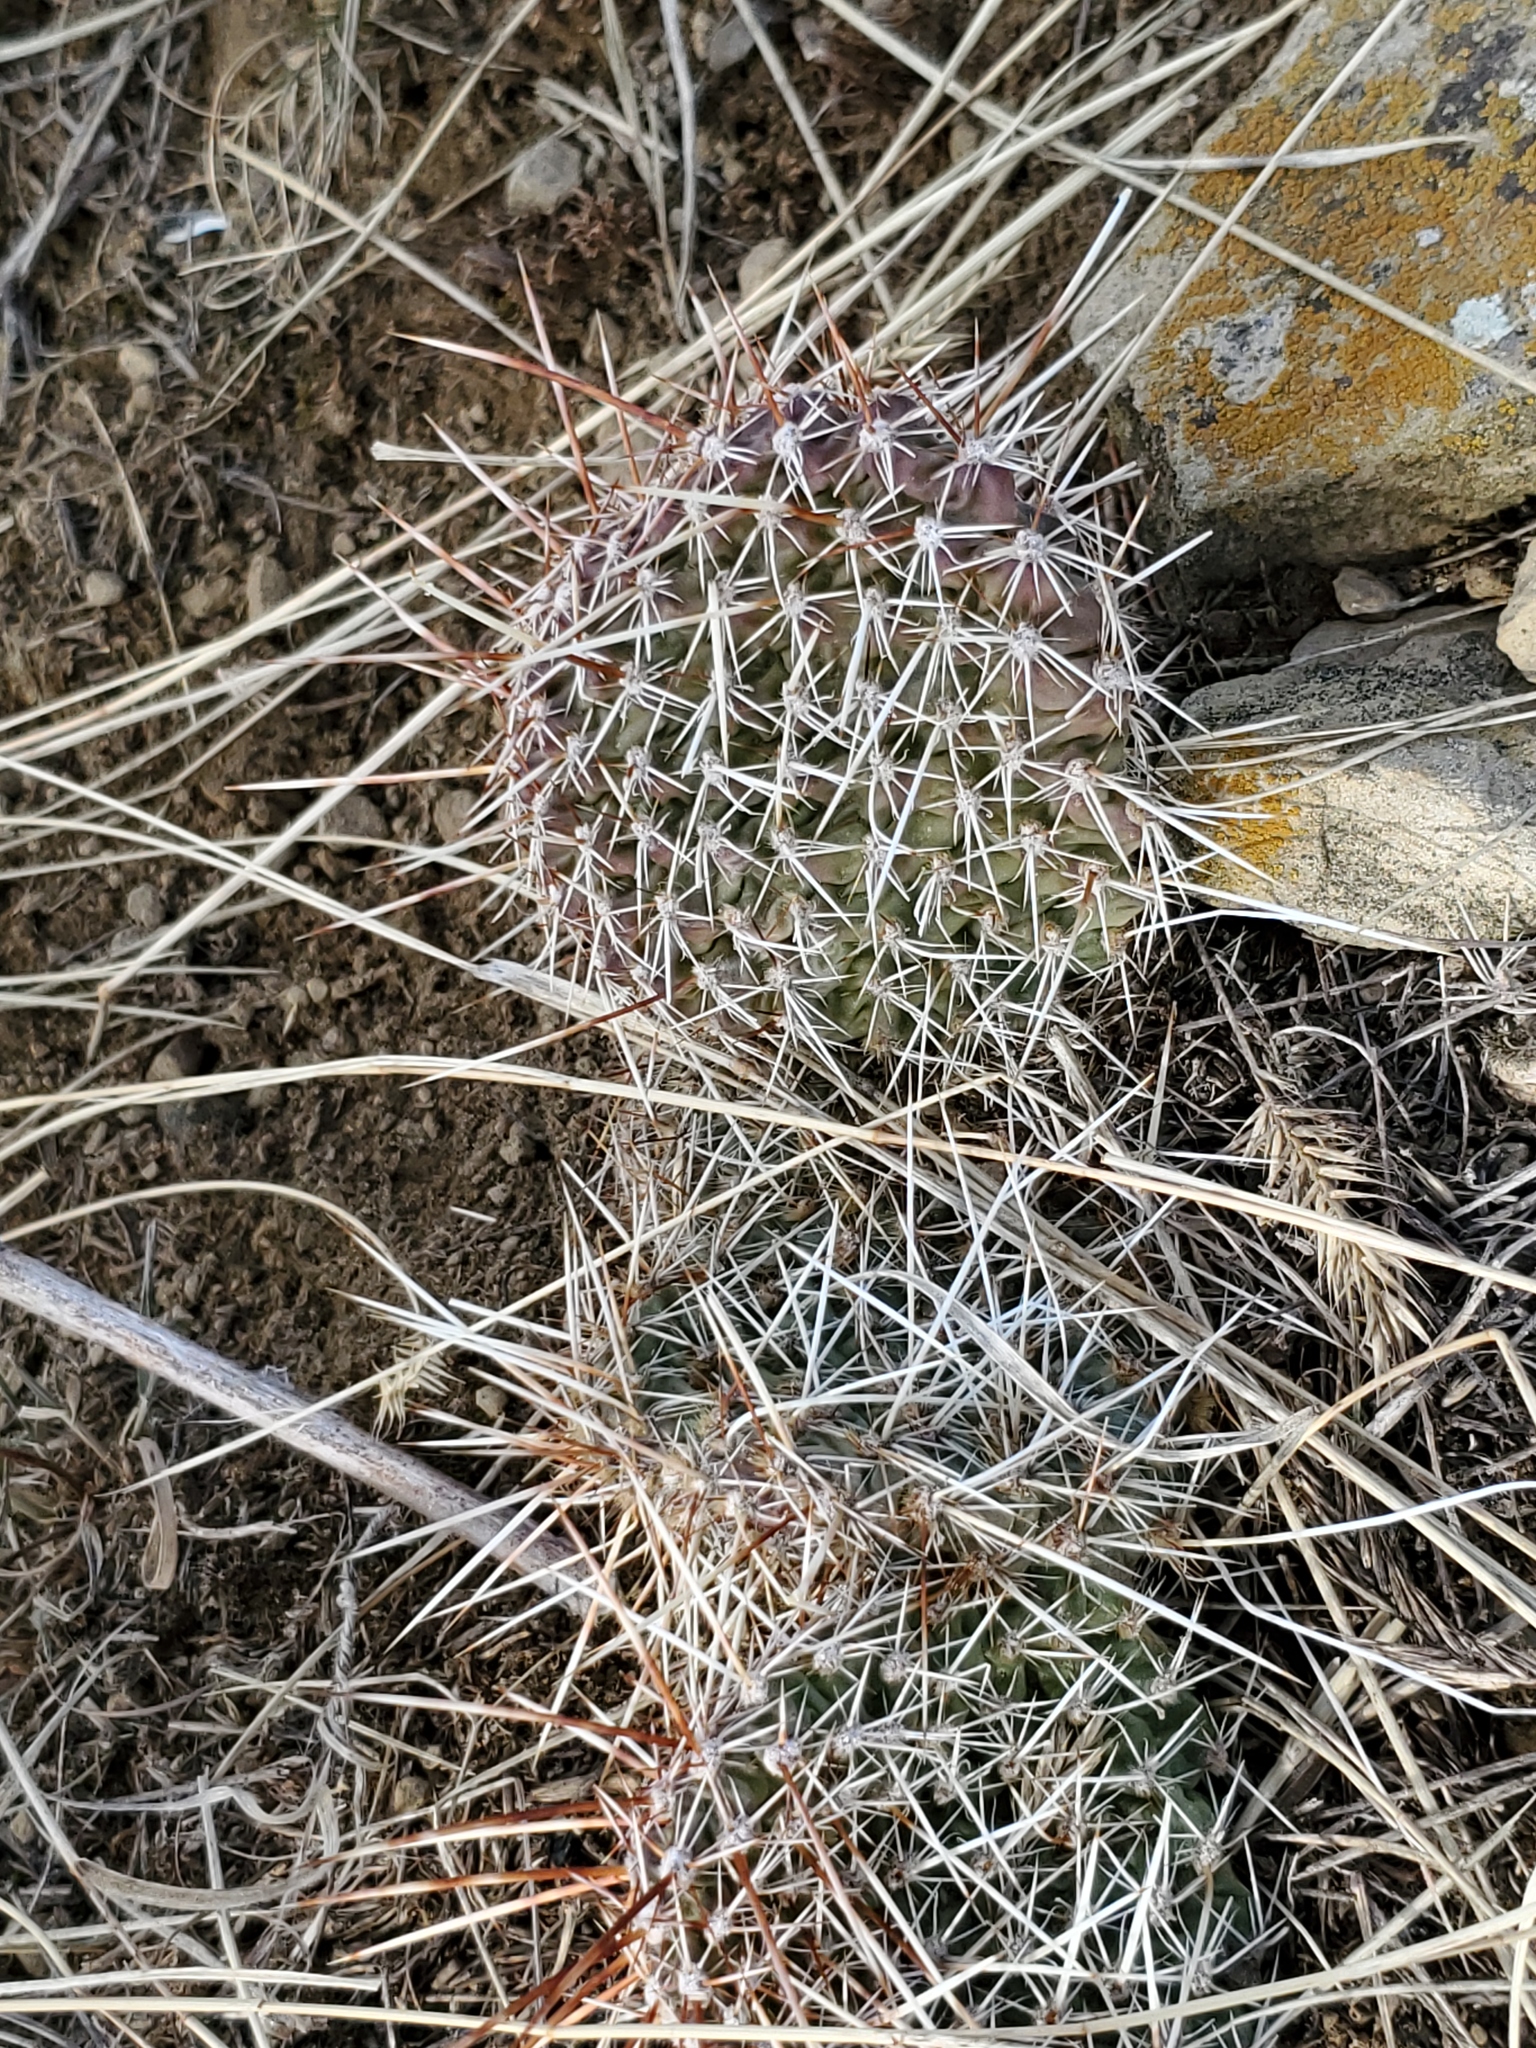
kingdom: Plantae
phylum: Tracheophyta
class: Magnoliopsida
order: Caryophyllales
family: Cactaceae
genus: Opuntia
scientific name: Opuntia polyacantha
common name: Plains prickly-pear
